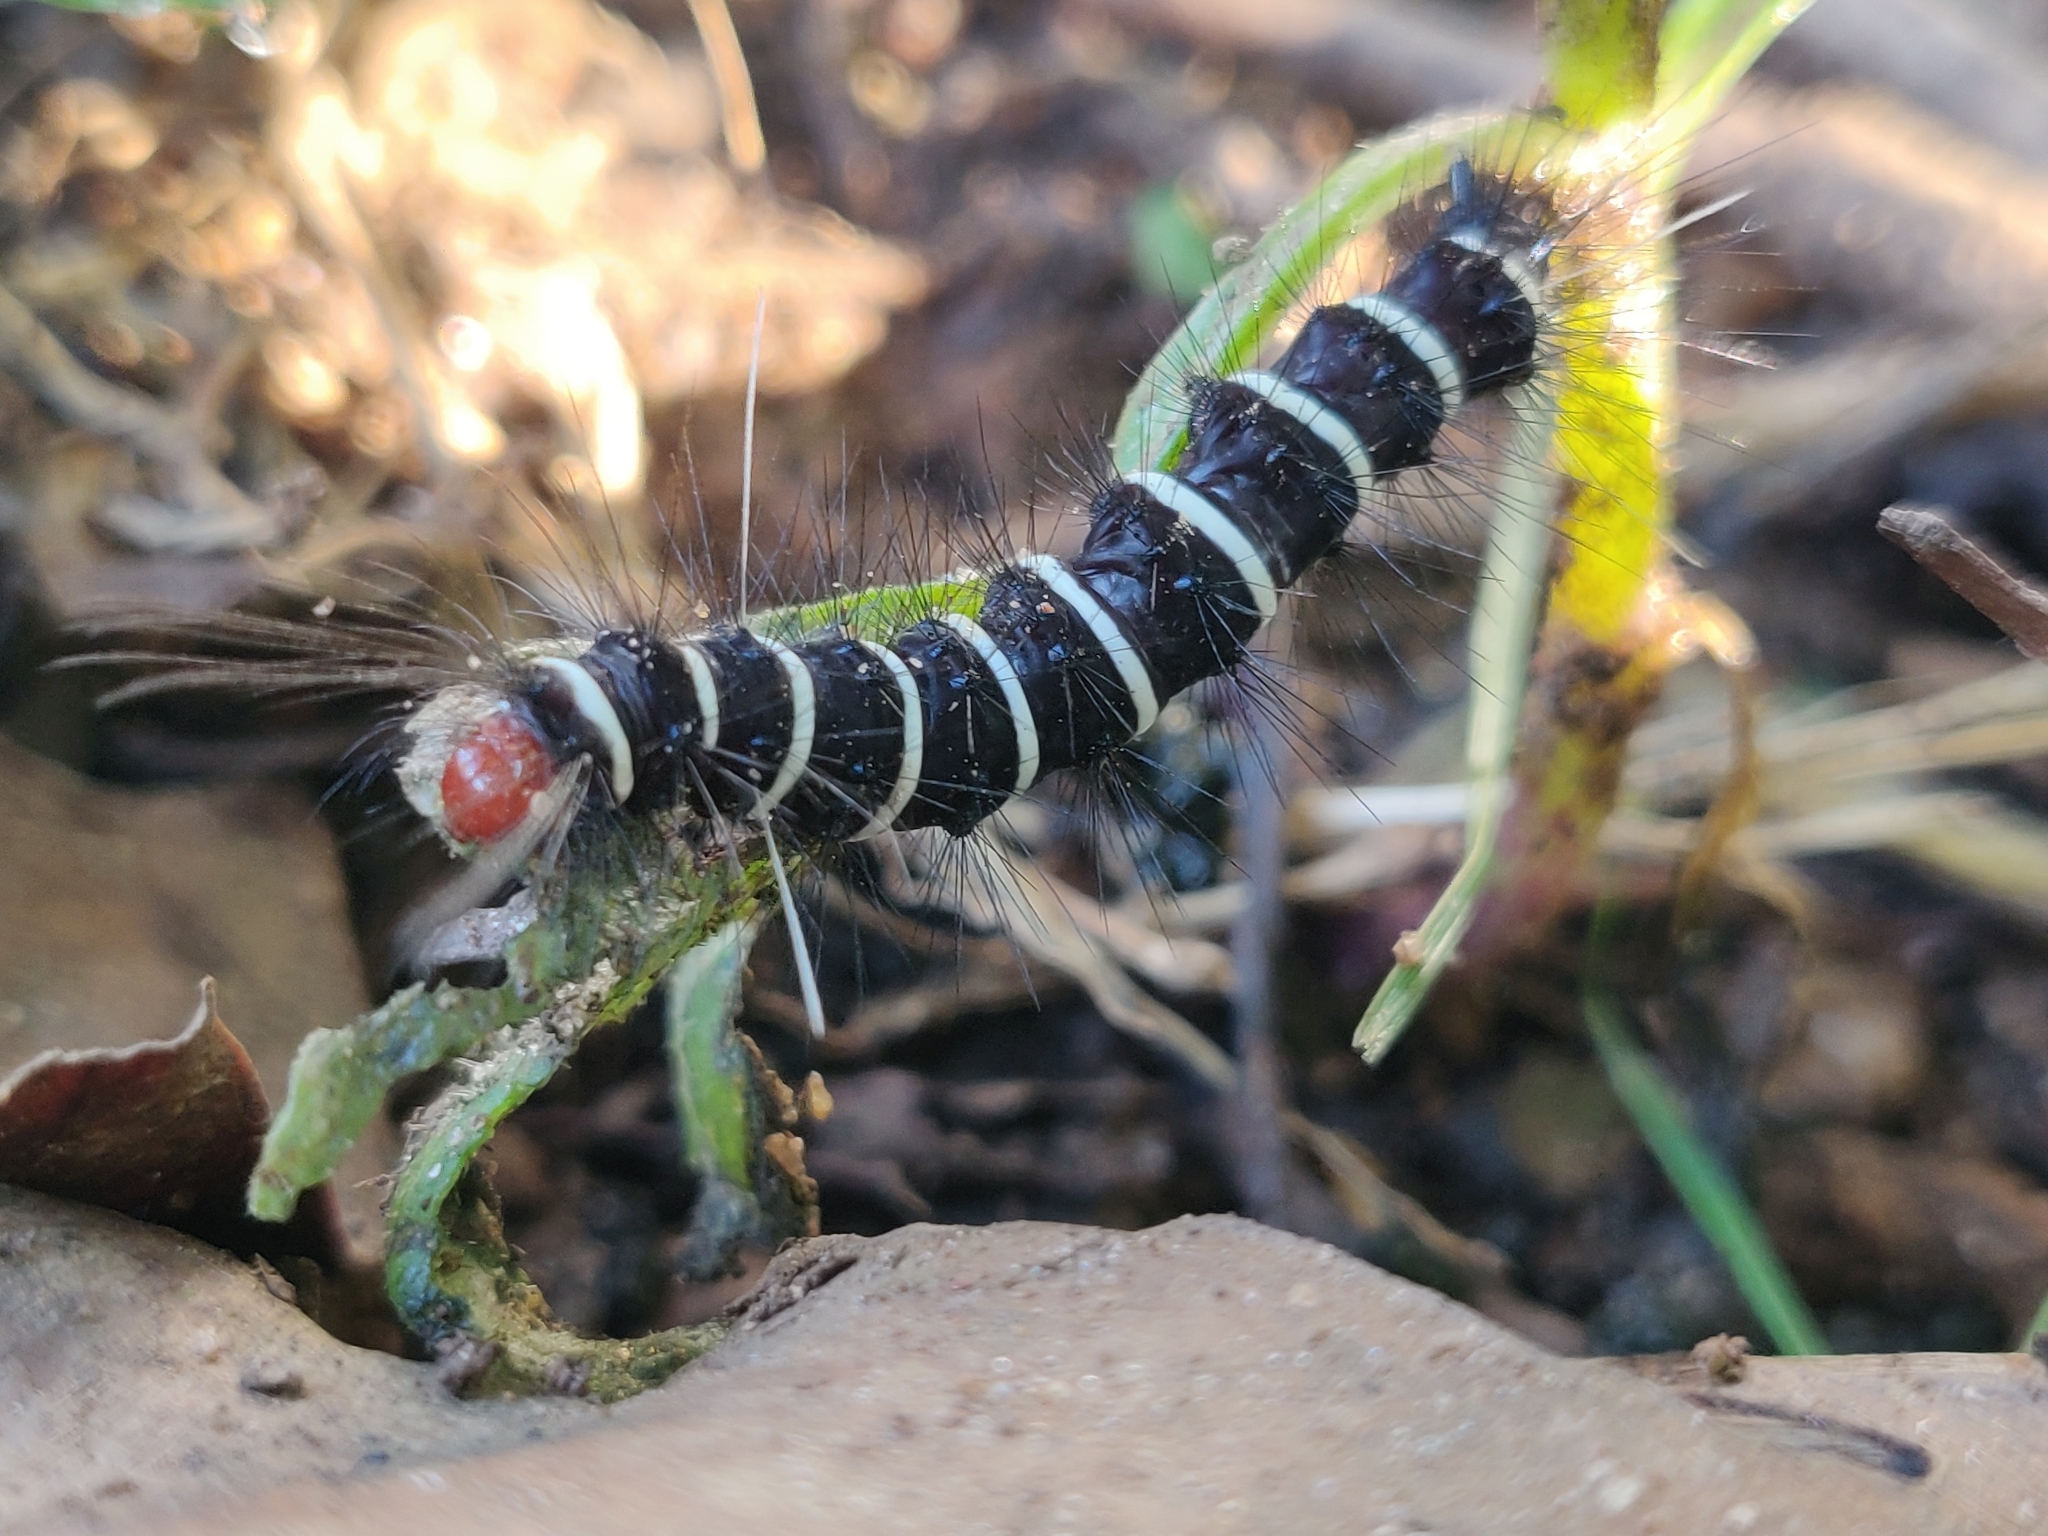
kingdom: Animalia
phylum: Arthropoda
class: Insecta
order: Lepidoptera
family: Erebidae
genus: Nyctemera
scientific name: Nyctemera coleta
